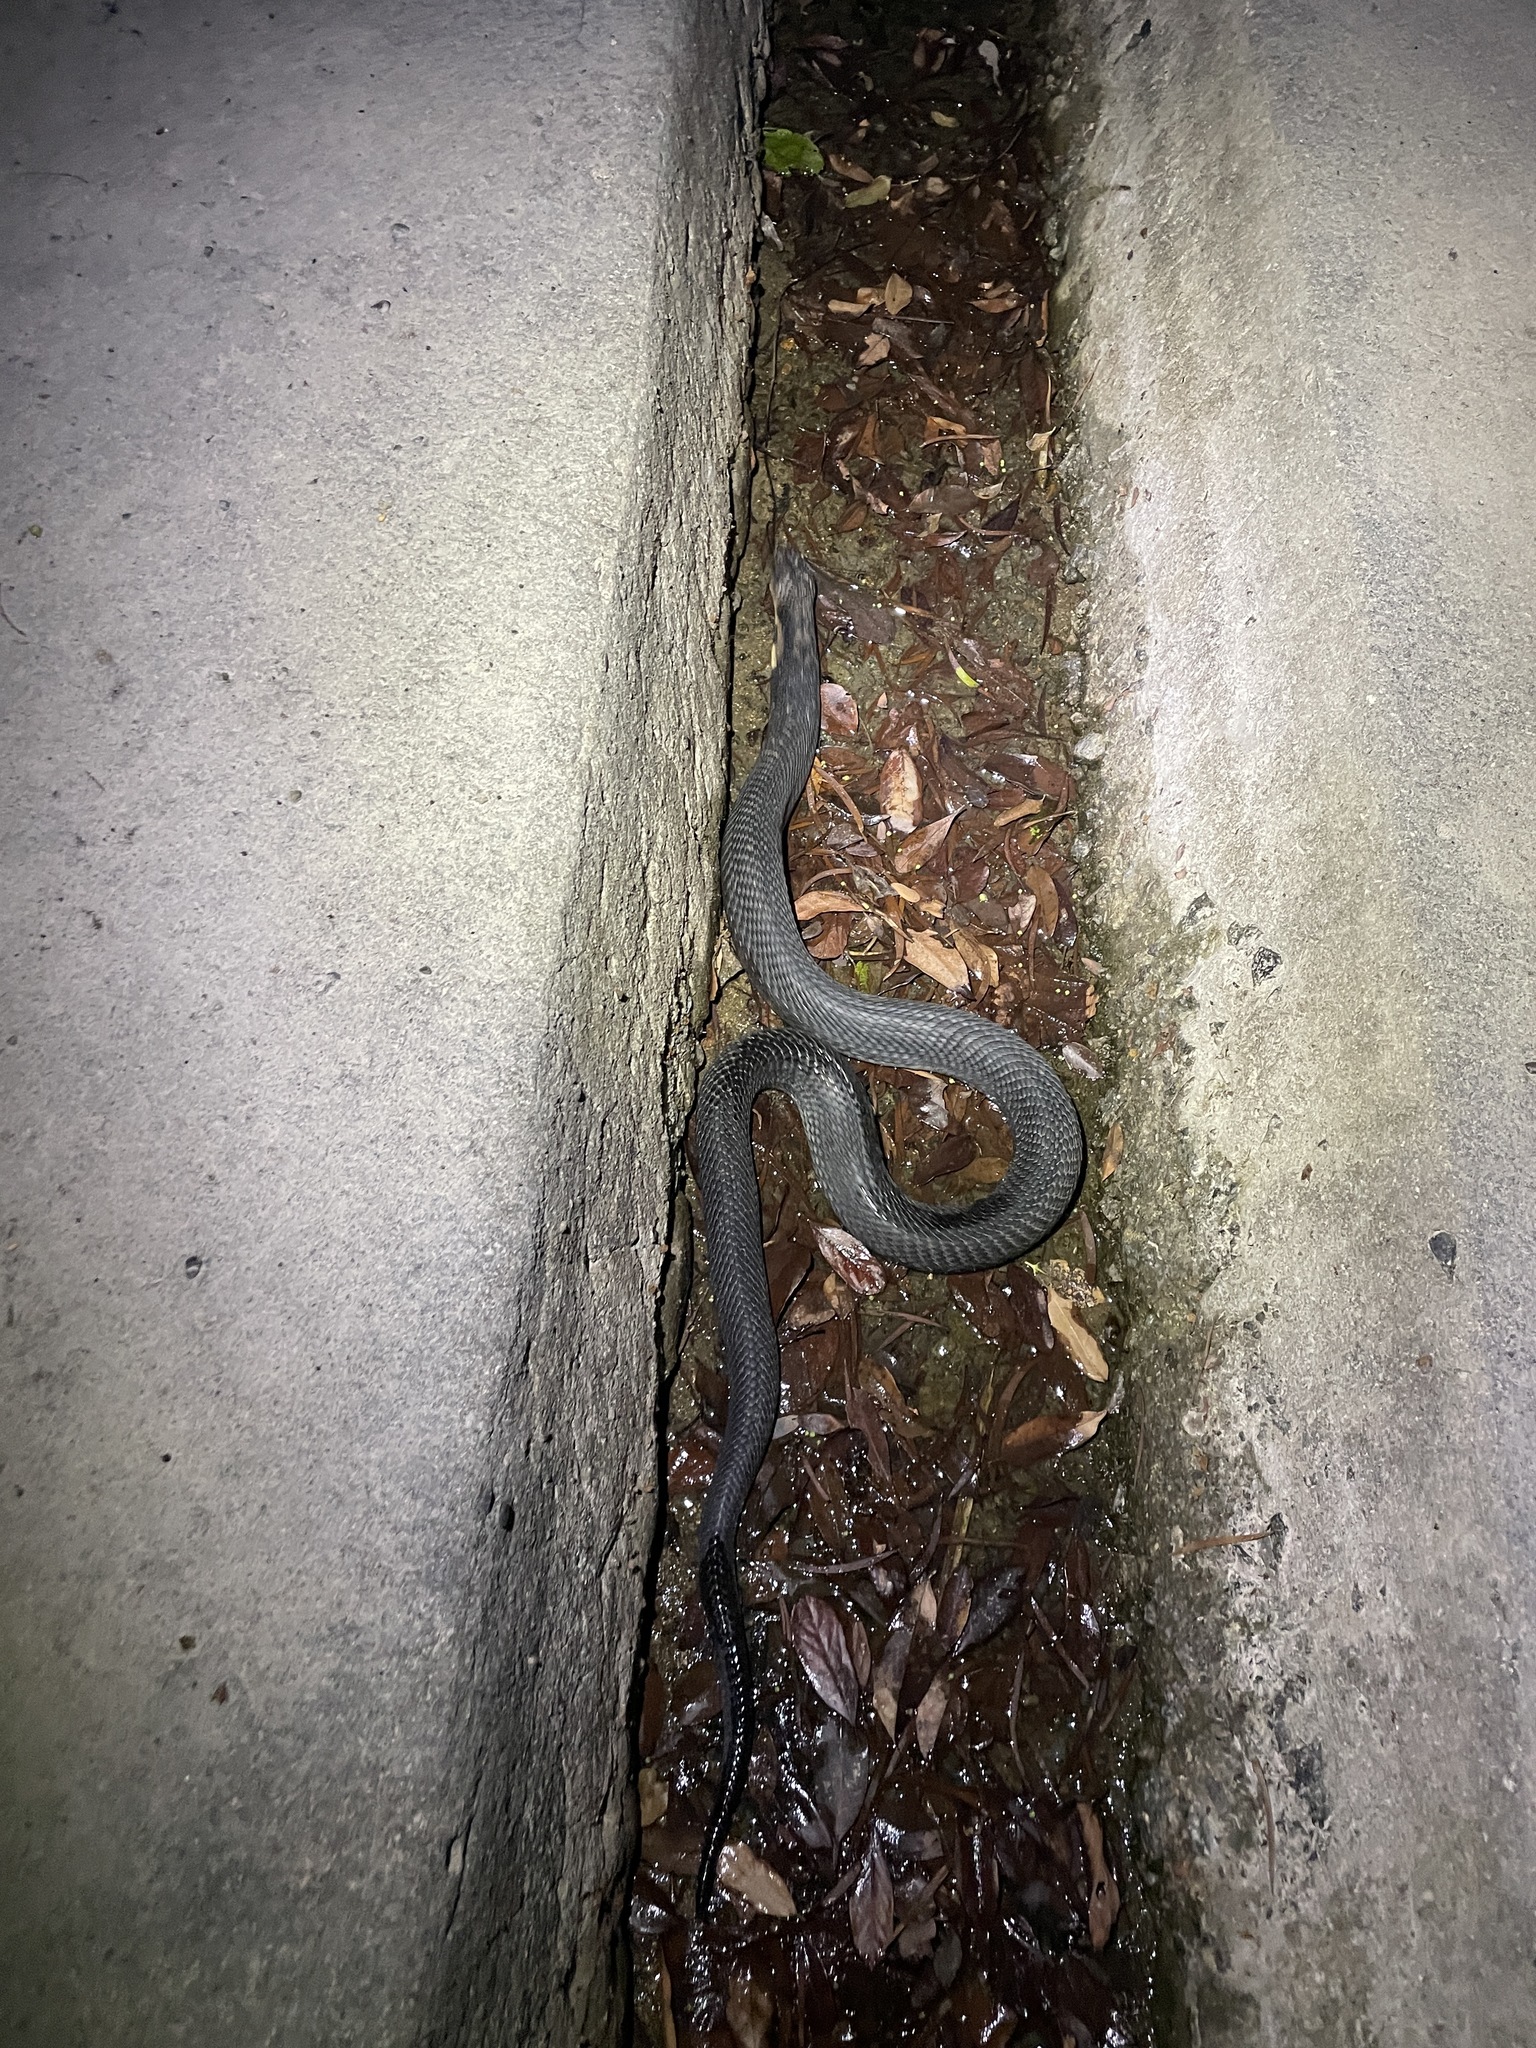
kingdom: Animalia
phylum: Chordata
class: Squamata
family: Elapidae
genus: Naja
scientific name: Naja atra
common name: Chinese cobra
